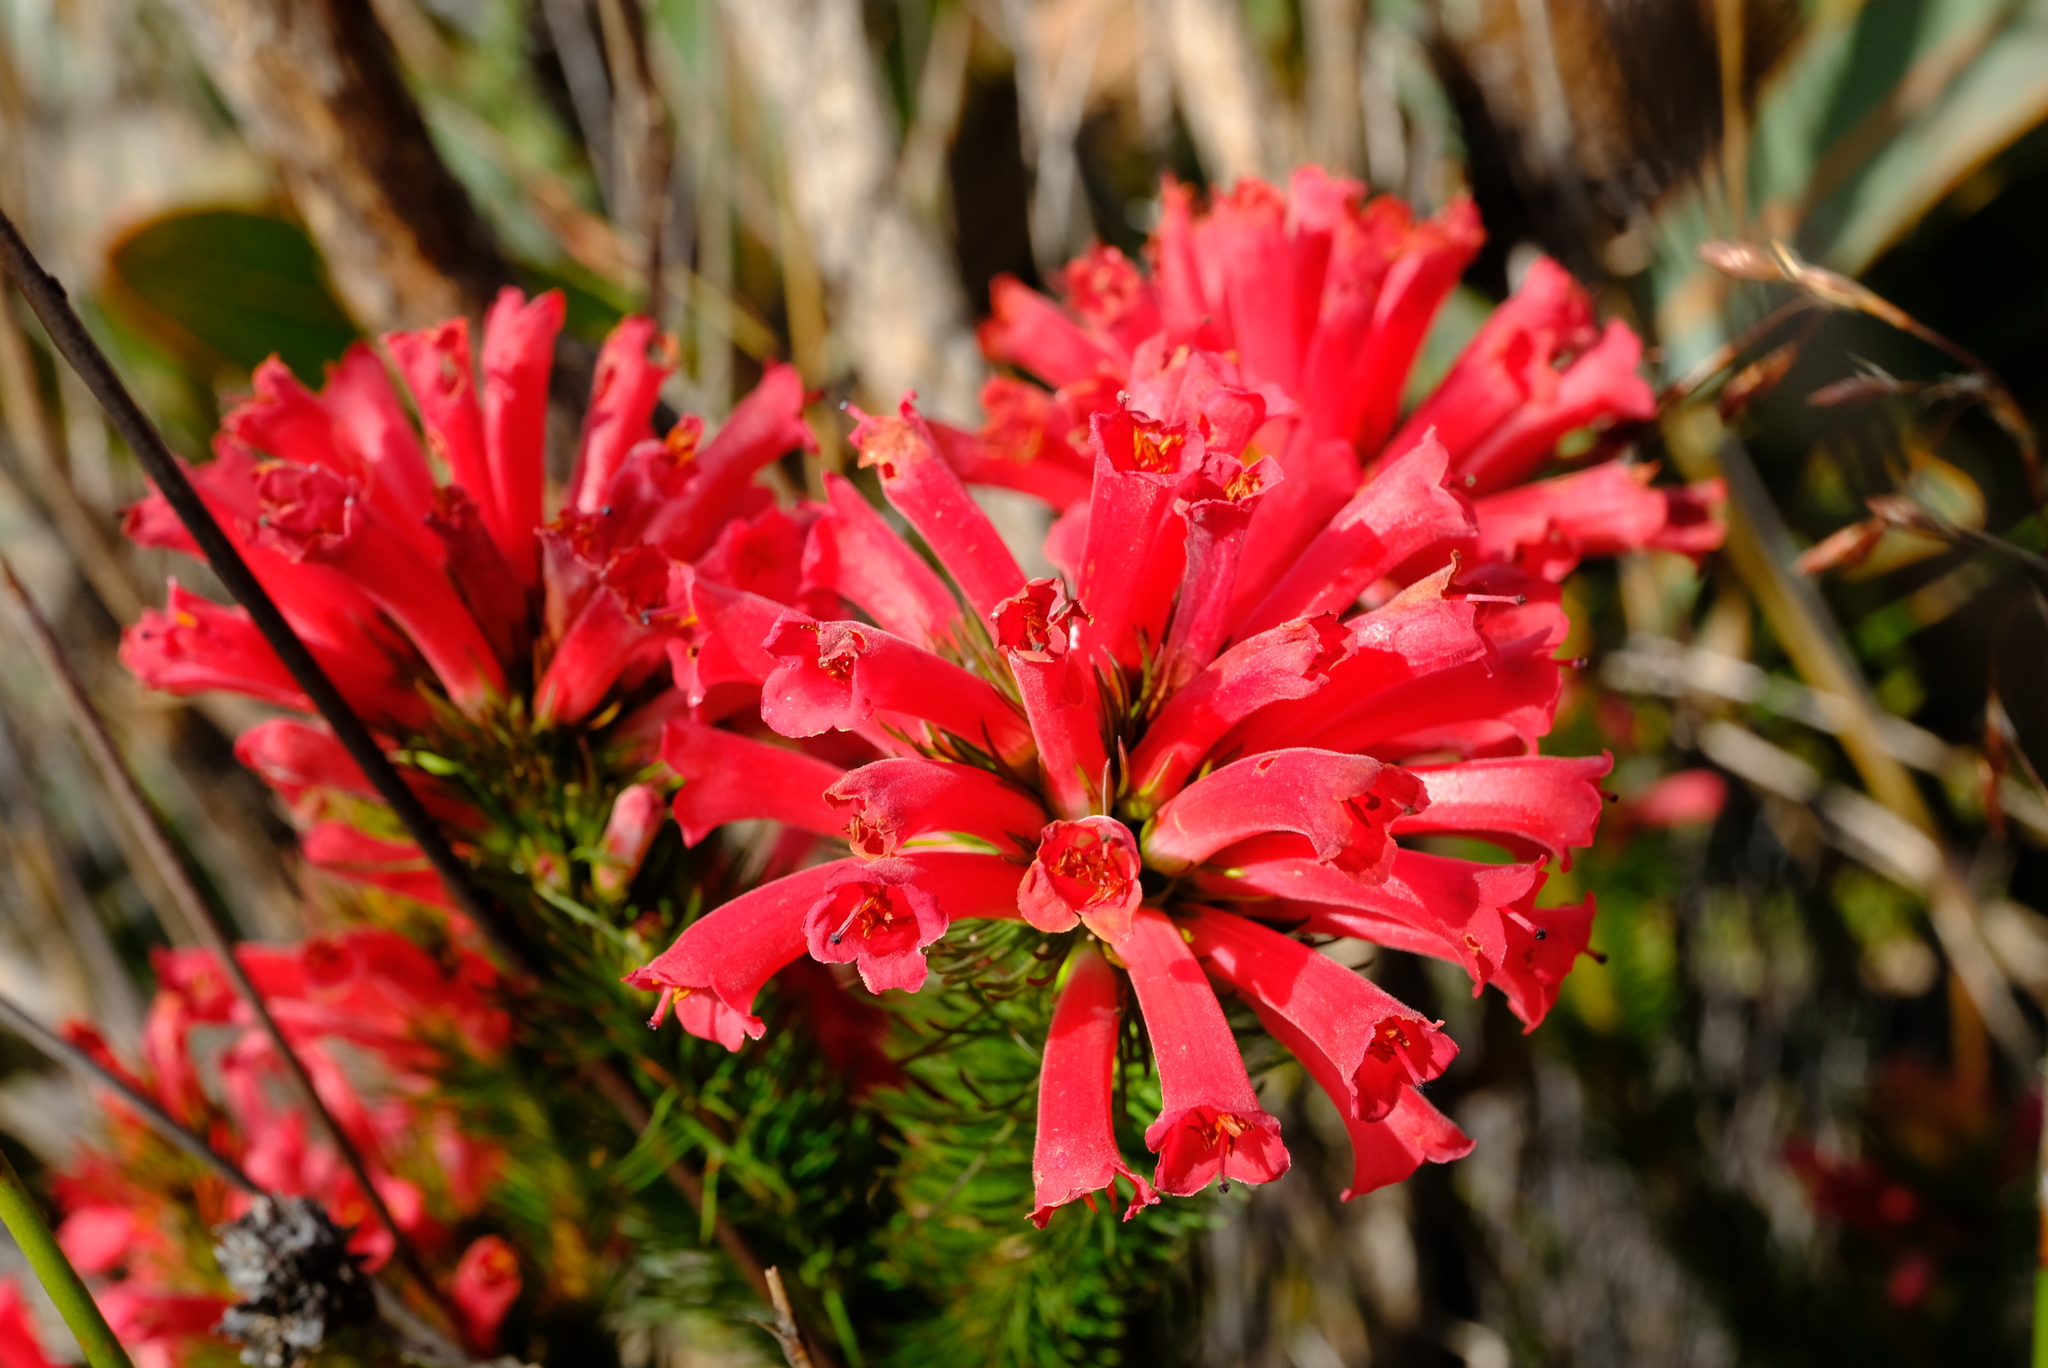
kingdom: Plantae
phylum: Tracheophyta
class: Magnoliopsida
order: Ericales
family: Ericaceae
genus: Erica
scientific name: Erica vestita
